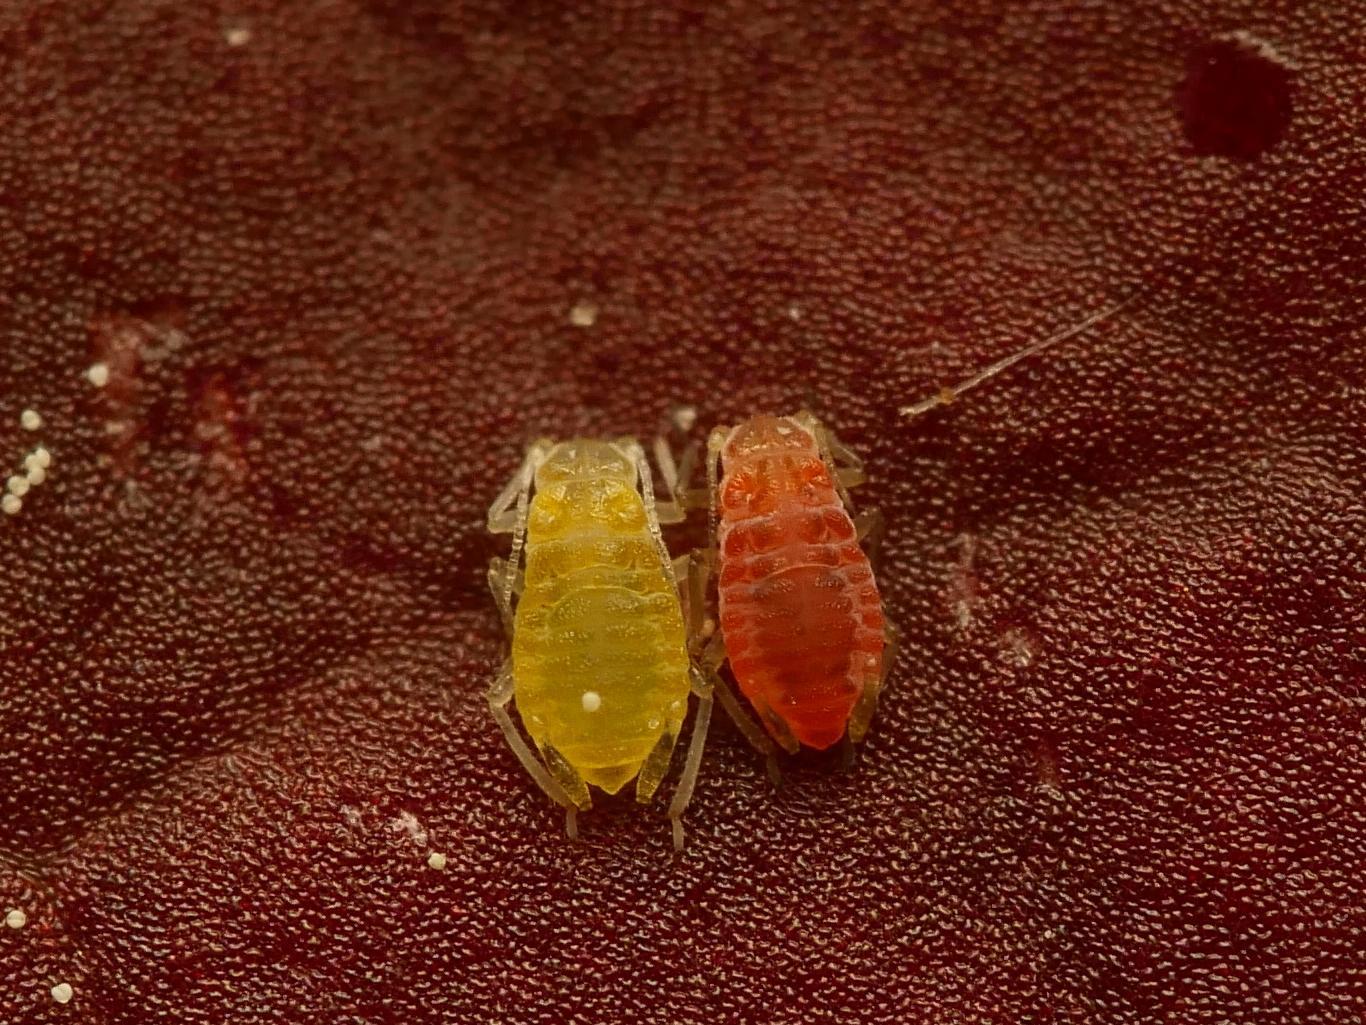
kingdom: Animalia
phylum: Arthropoda
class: Insecta
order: Hemiptera
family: Aphididae
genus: Liosomaphis
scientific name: Liosomaphis berberidis
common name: Barberry aphid
